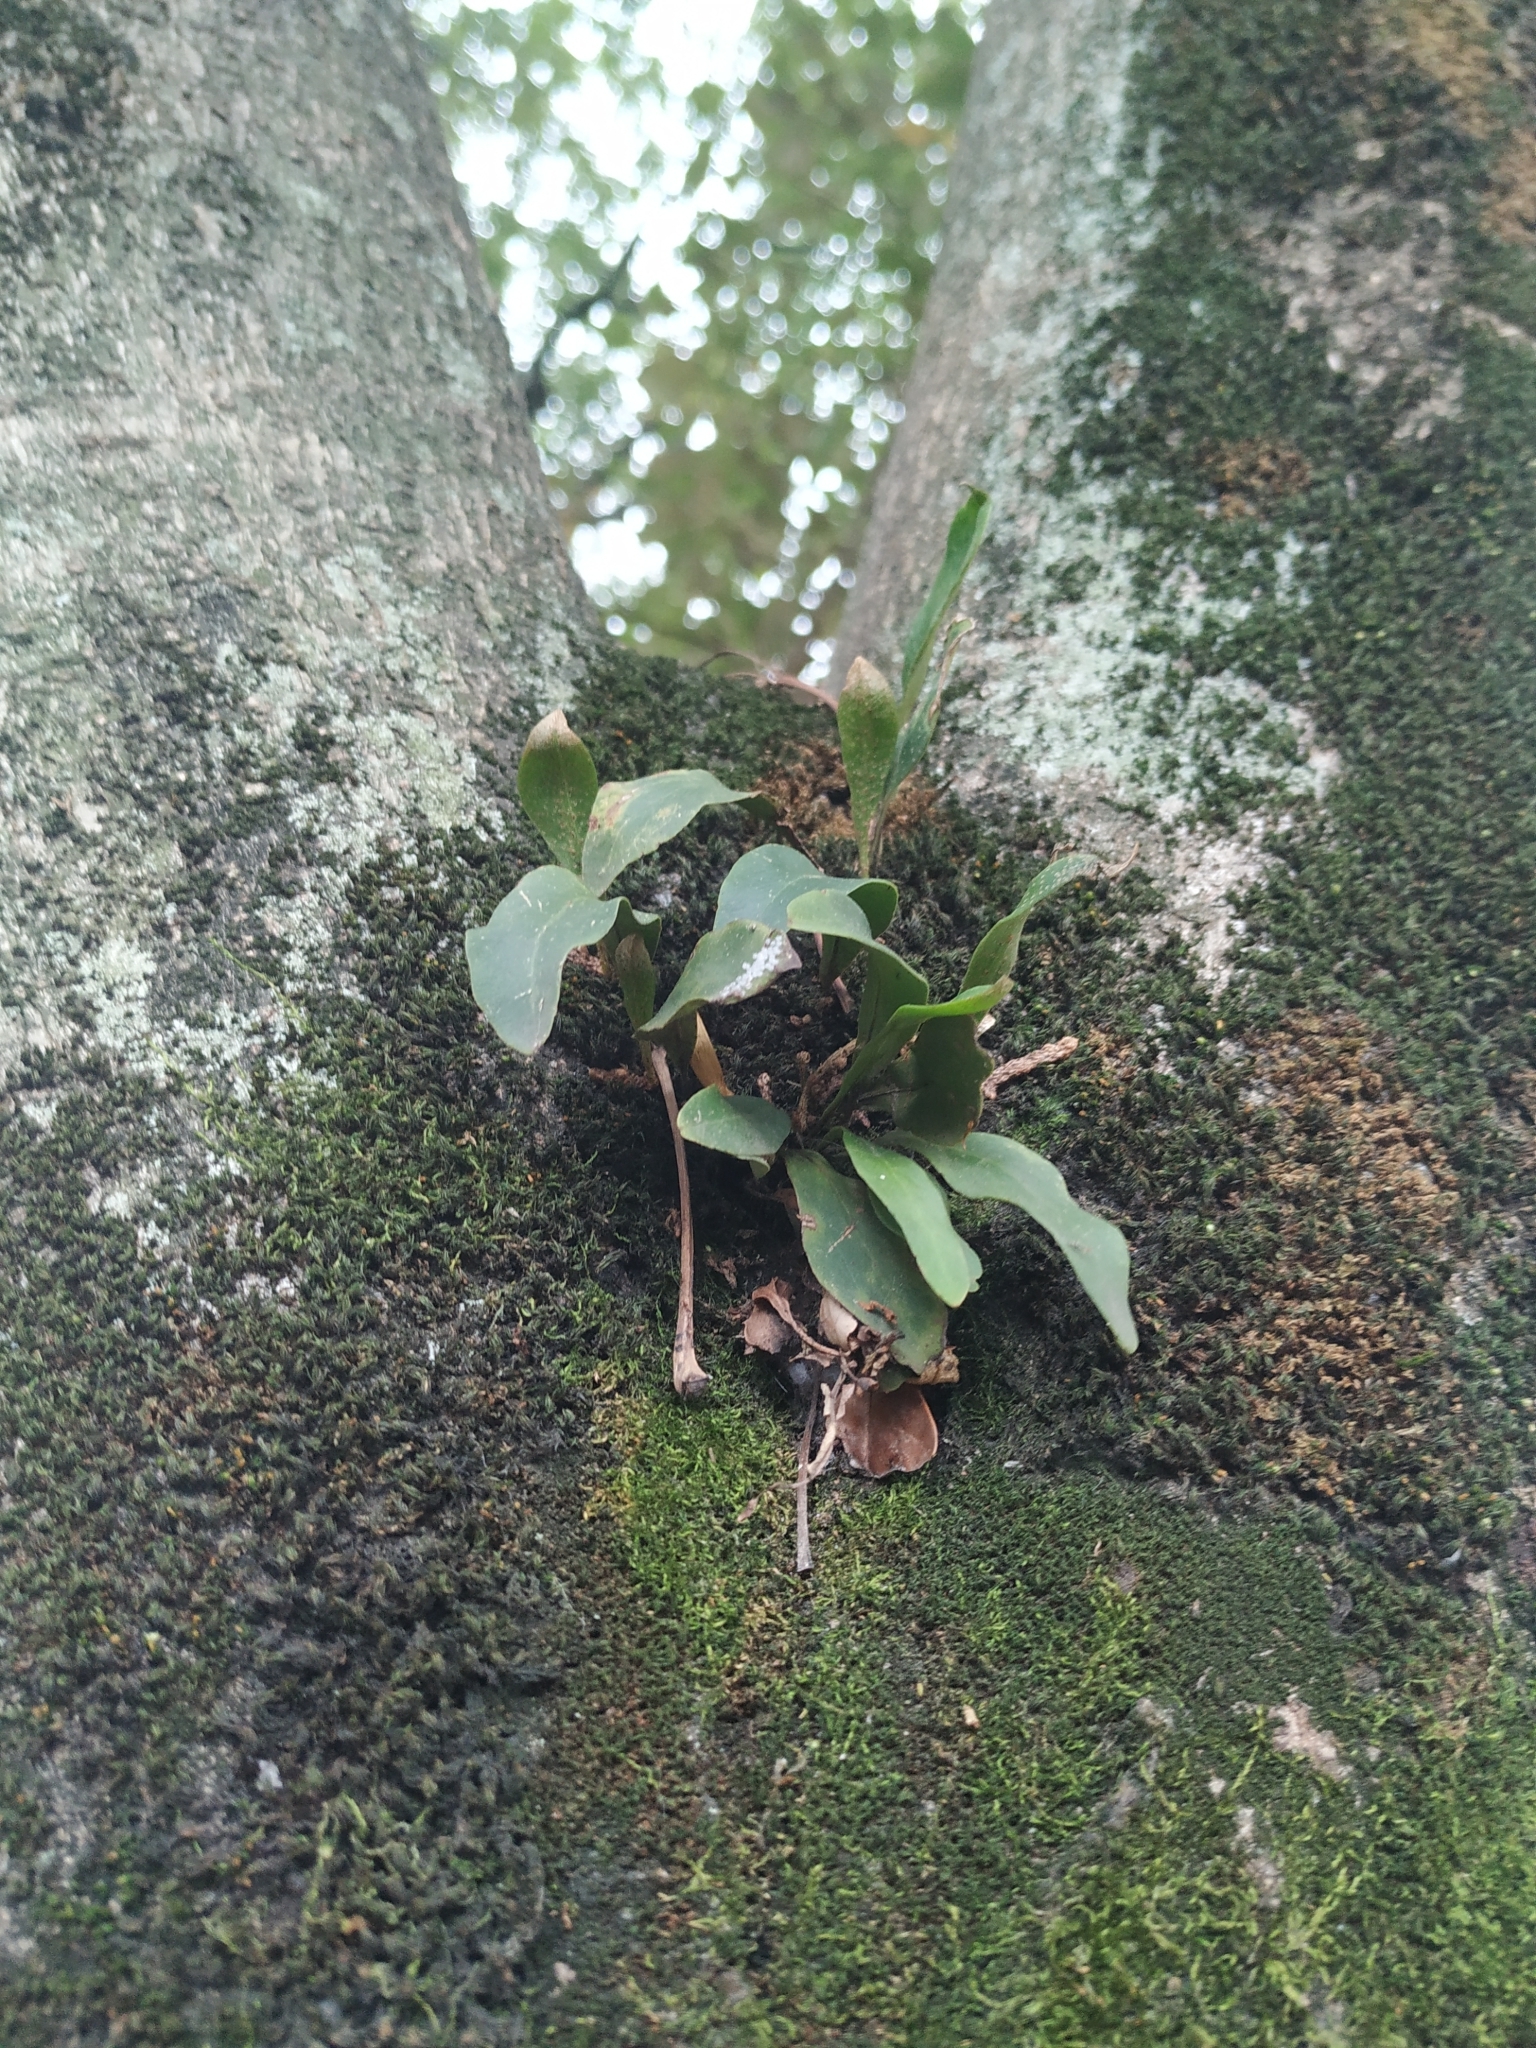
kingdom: Plantae
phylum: Tracheophyta
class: Polypodiopsida
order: Polypodiales
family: Polypodiaceae
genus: Pleopeltis
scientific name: Pleopeltis macrocarpa
